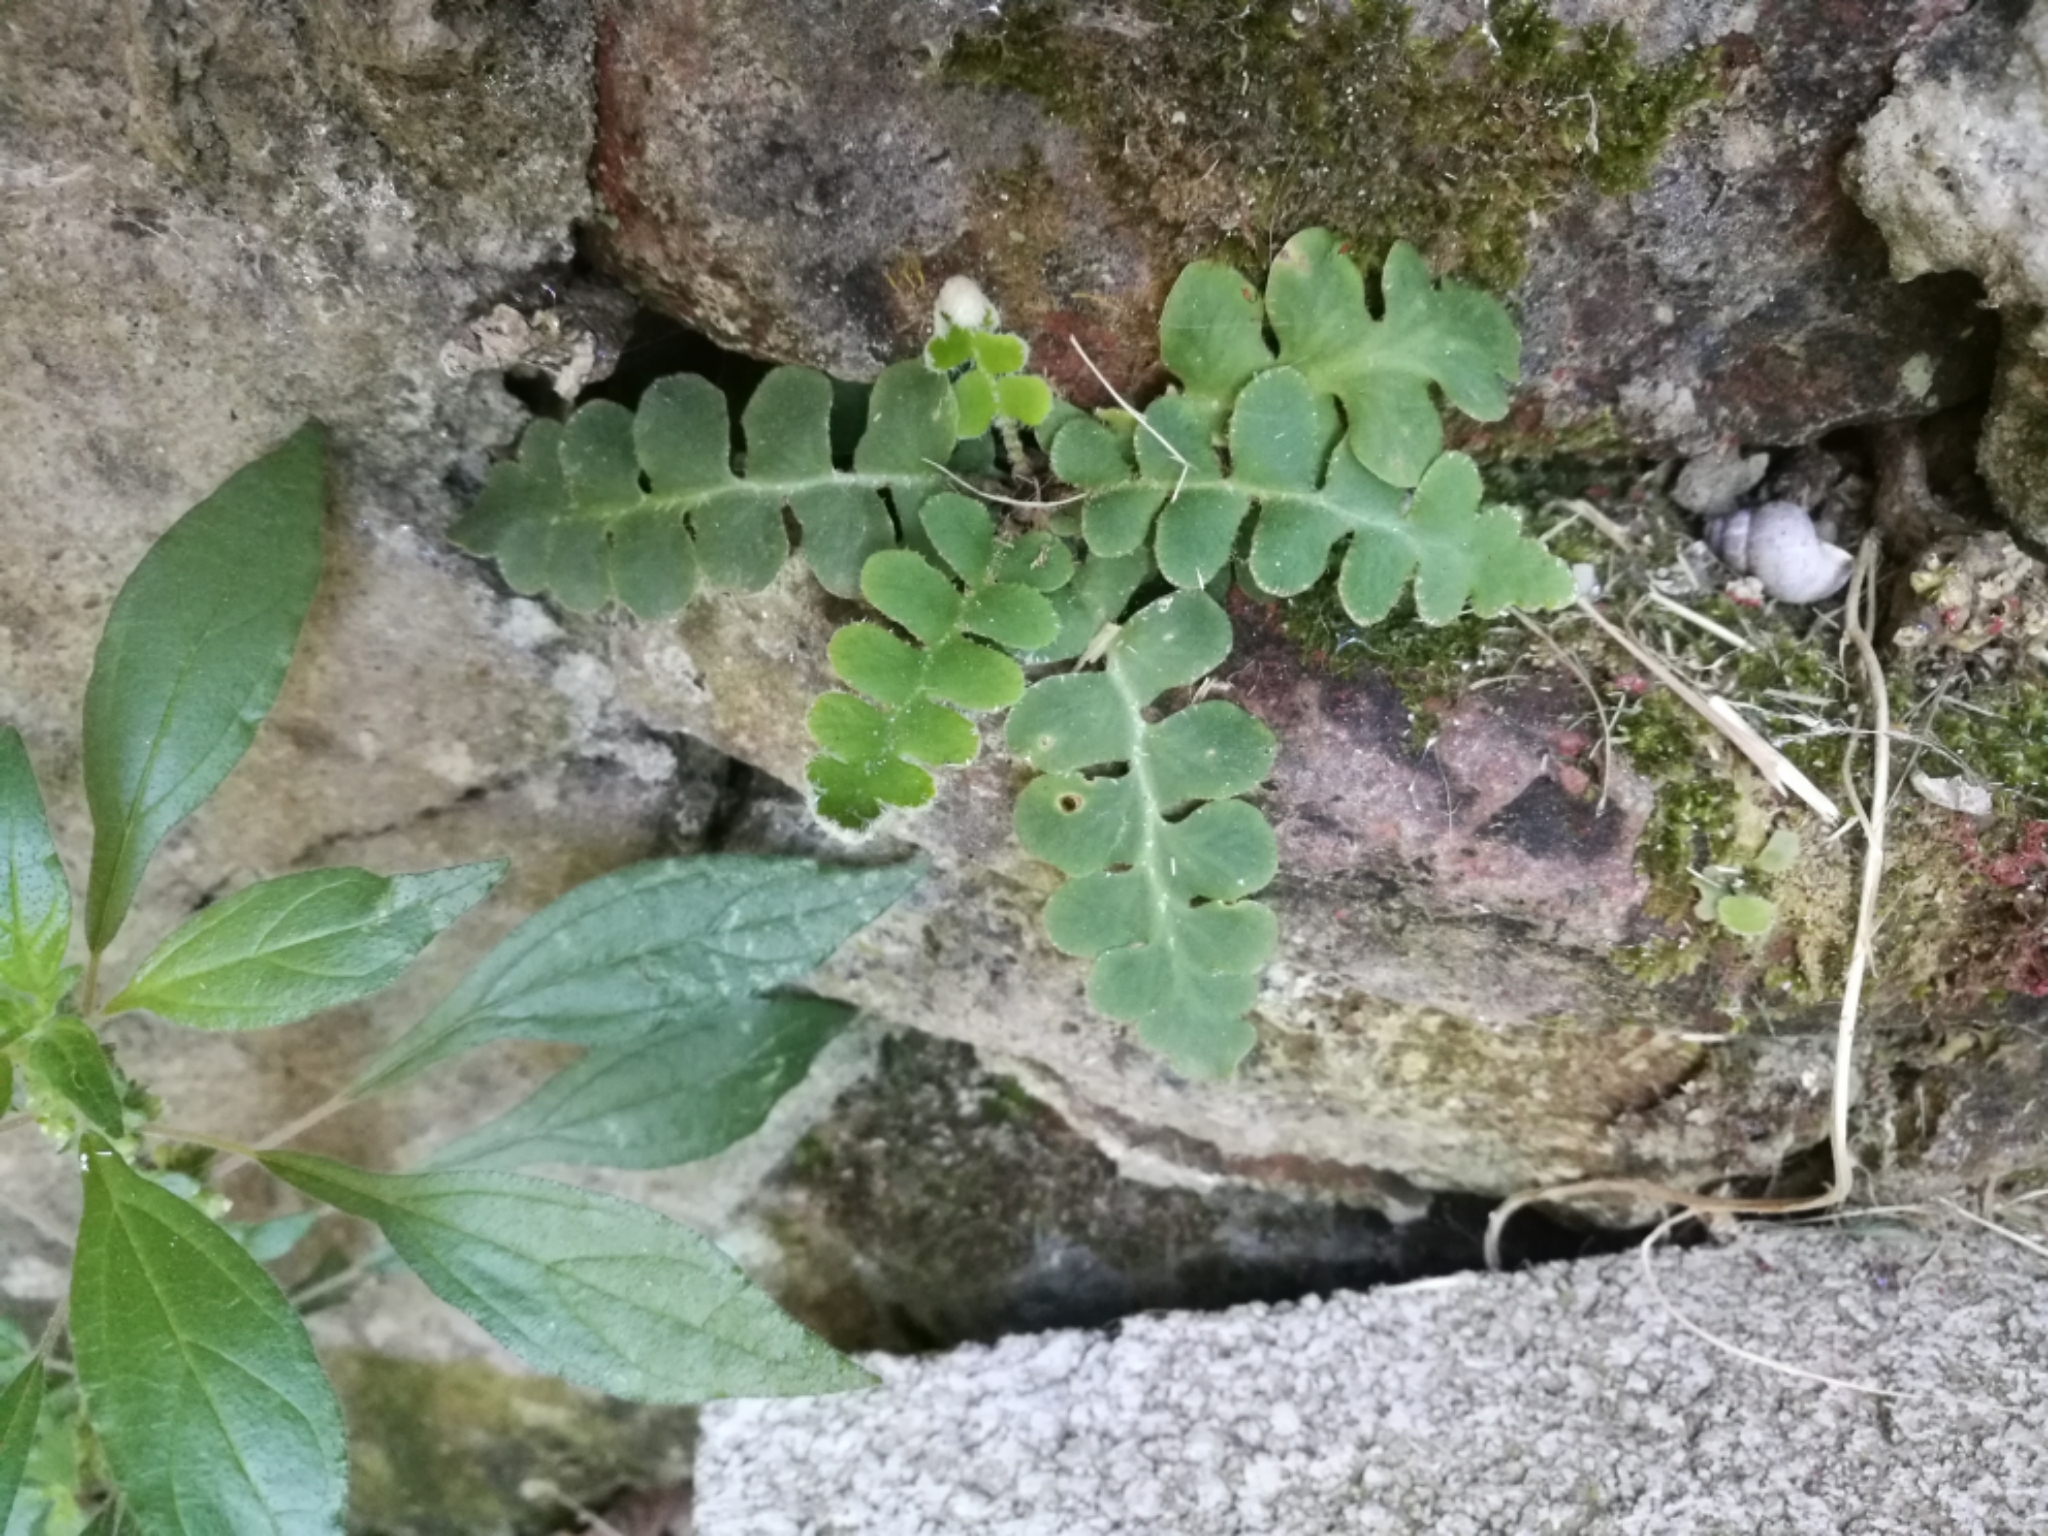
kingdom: Plantae
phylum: Tracheophyta
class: Polypodiopsida
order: Polypodiales
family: Aspleniaceae
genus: Asplenium
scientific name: Asplenium ceterach
